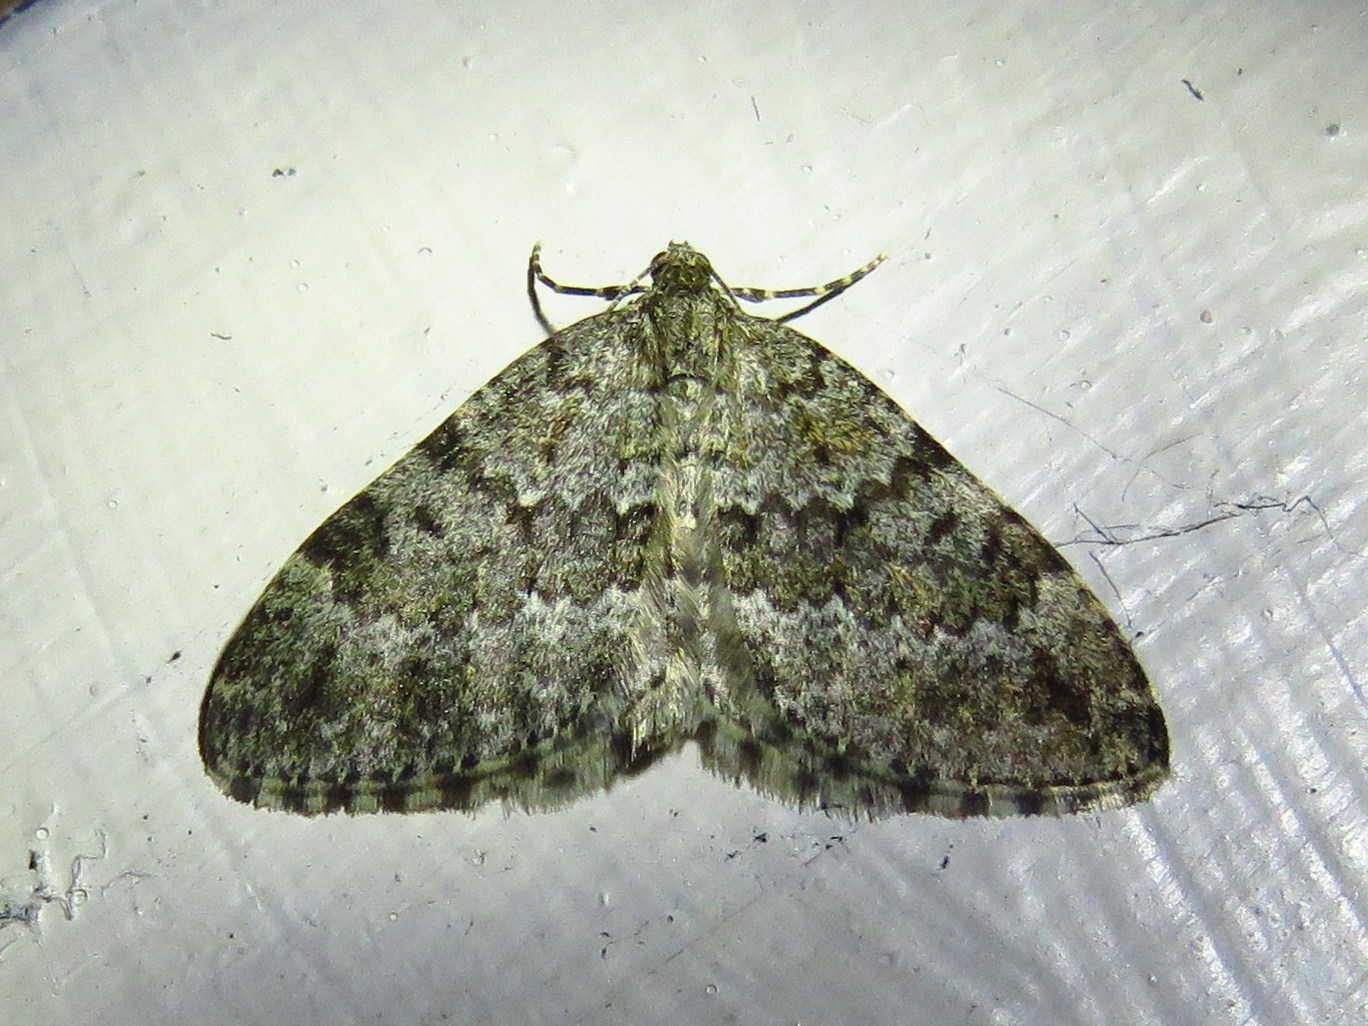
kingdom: Animalia
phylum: Arthropoda
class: Insecta
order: Lepidoptera
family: Geometridae
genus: Entephria
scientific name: Entephria caesiata
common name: Grey mountain moth
